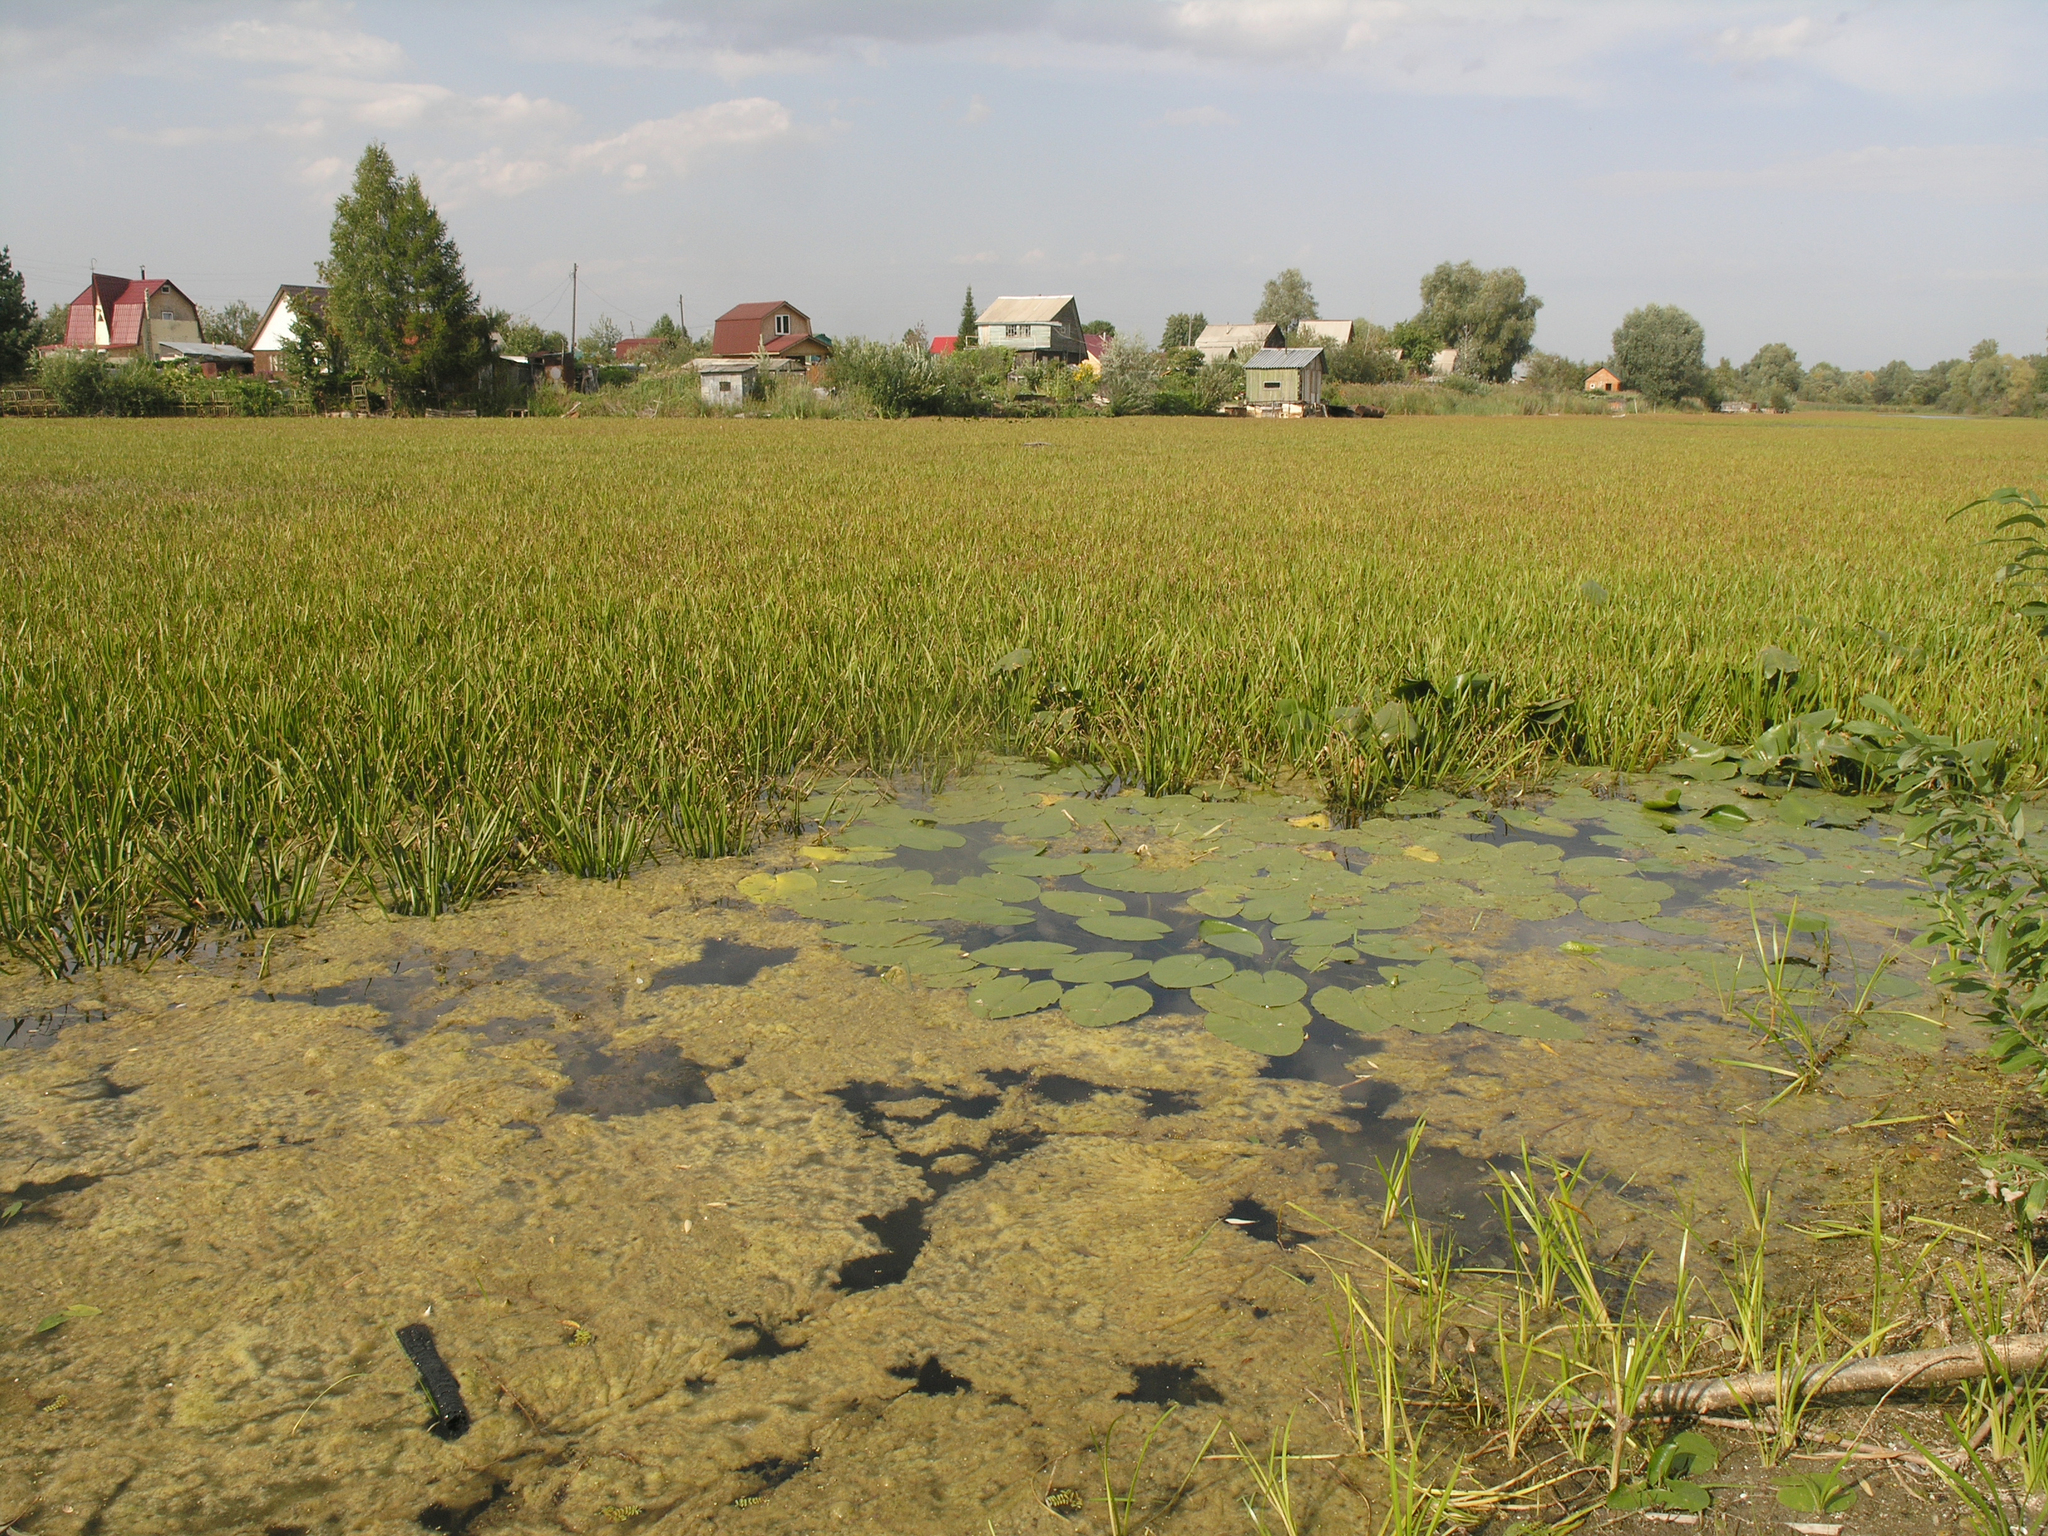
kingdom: Plantae
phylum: Tracheophyta
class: Liliopsida
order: Alismatales
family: Hydrocharitaceae
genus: Stratiotes
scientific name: Stratiotes aloides
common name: Water-soldier
